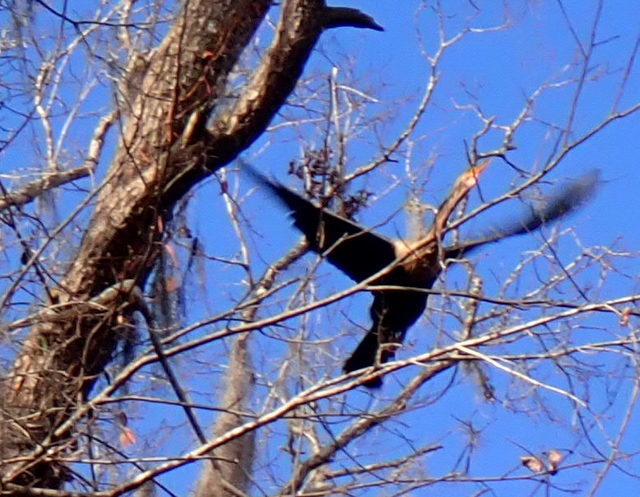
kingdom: Animalia
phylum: Chordata
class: Aves
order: Suliformes
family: Anhingidae
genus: Anhinga
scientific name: Anhinga anhinga
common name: Anhinga
